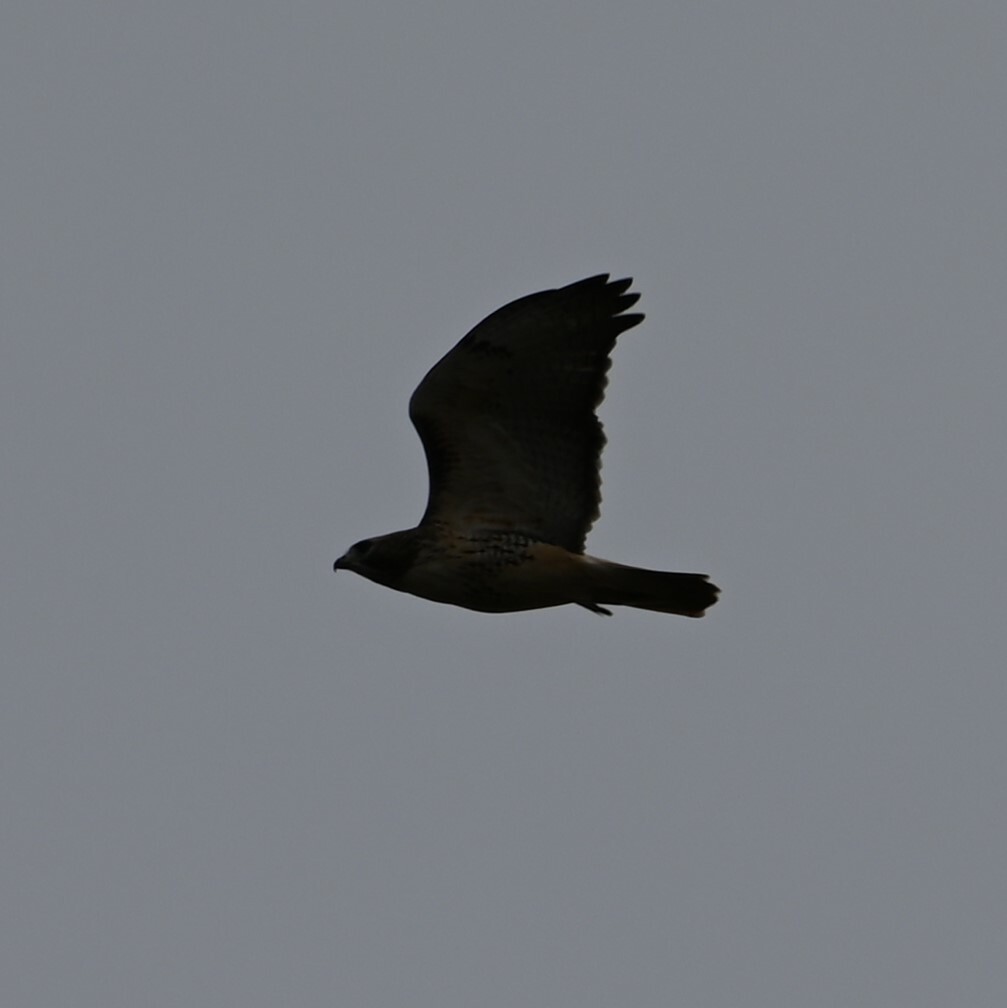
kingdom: Animalia
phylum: Chordata
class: Aves
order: Accipitriformes
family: Accipitridae
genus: Buteo
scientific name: Buteo jamaicensis
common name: Red-tailed hawk
